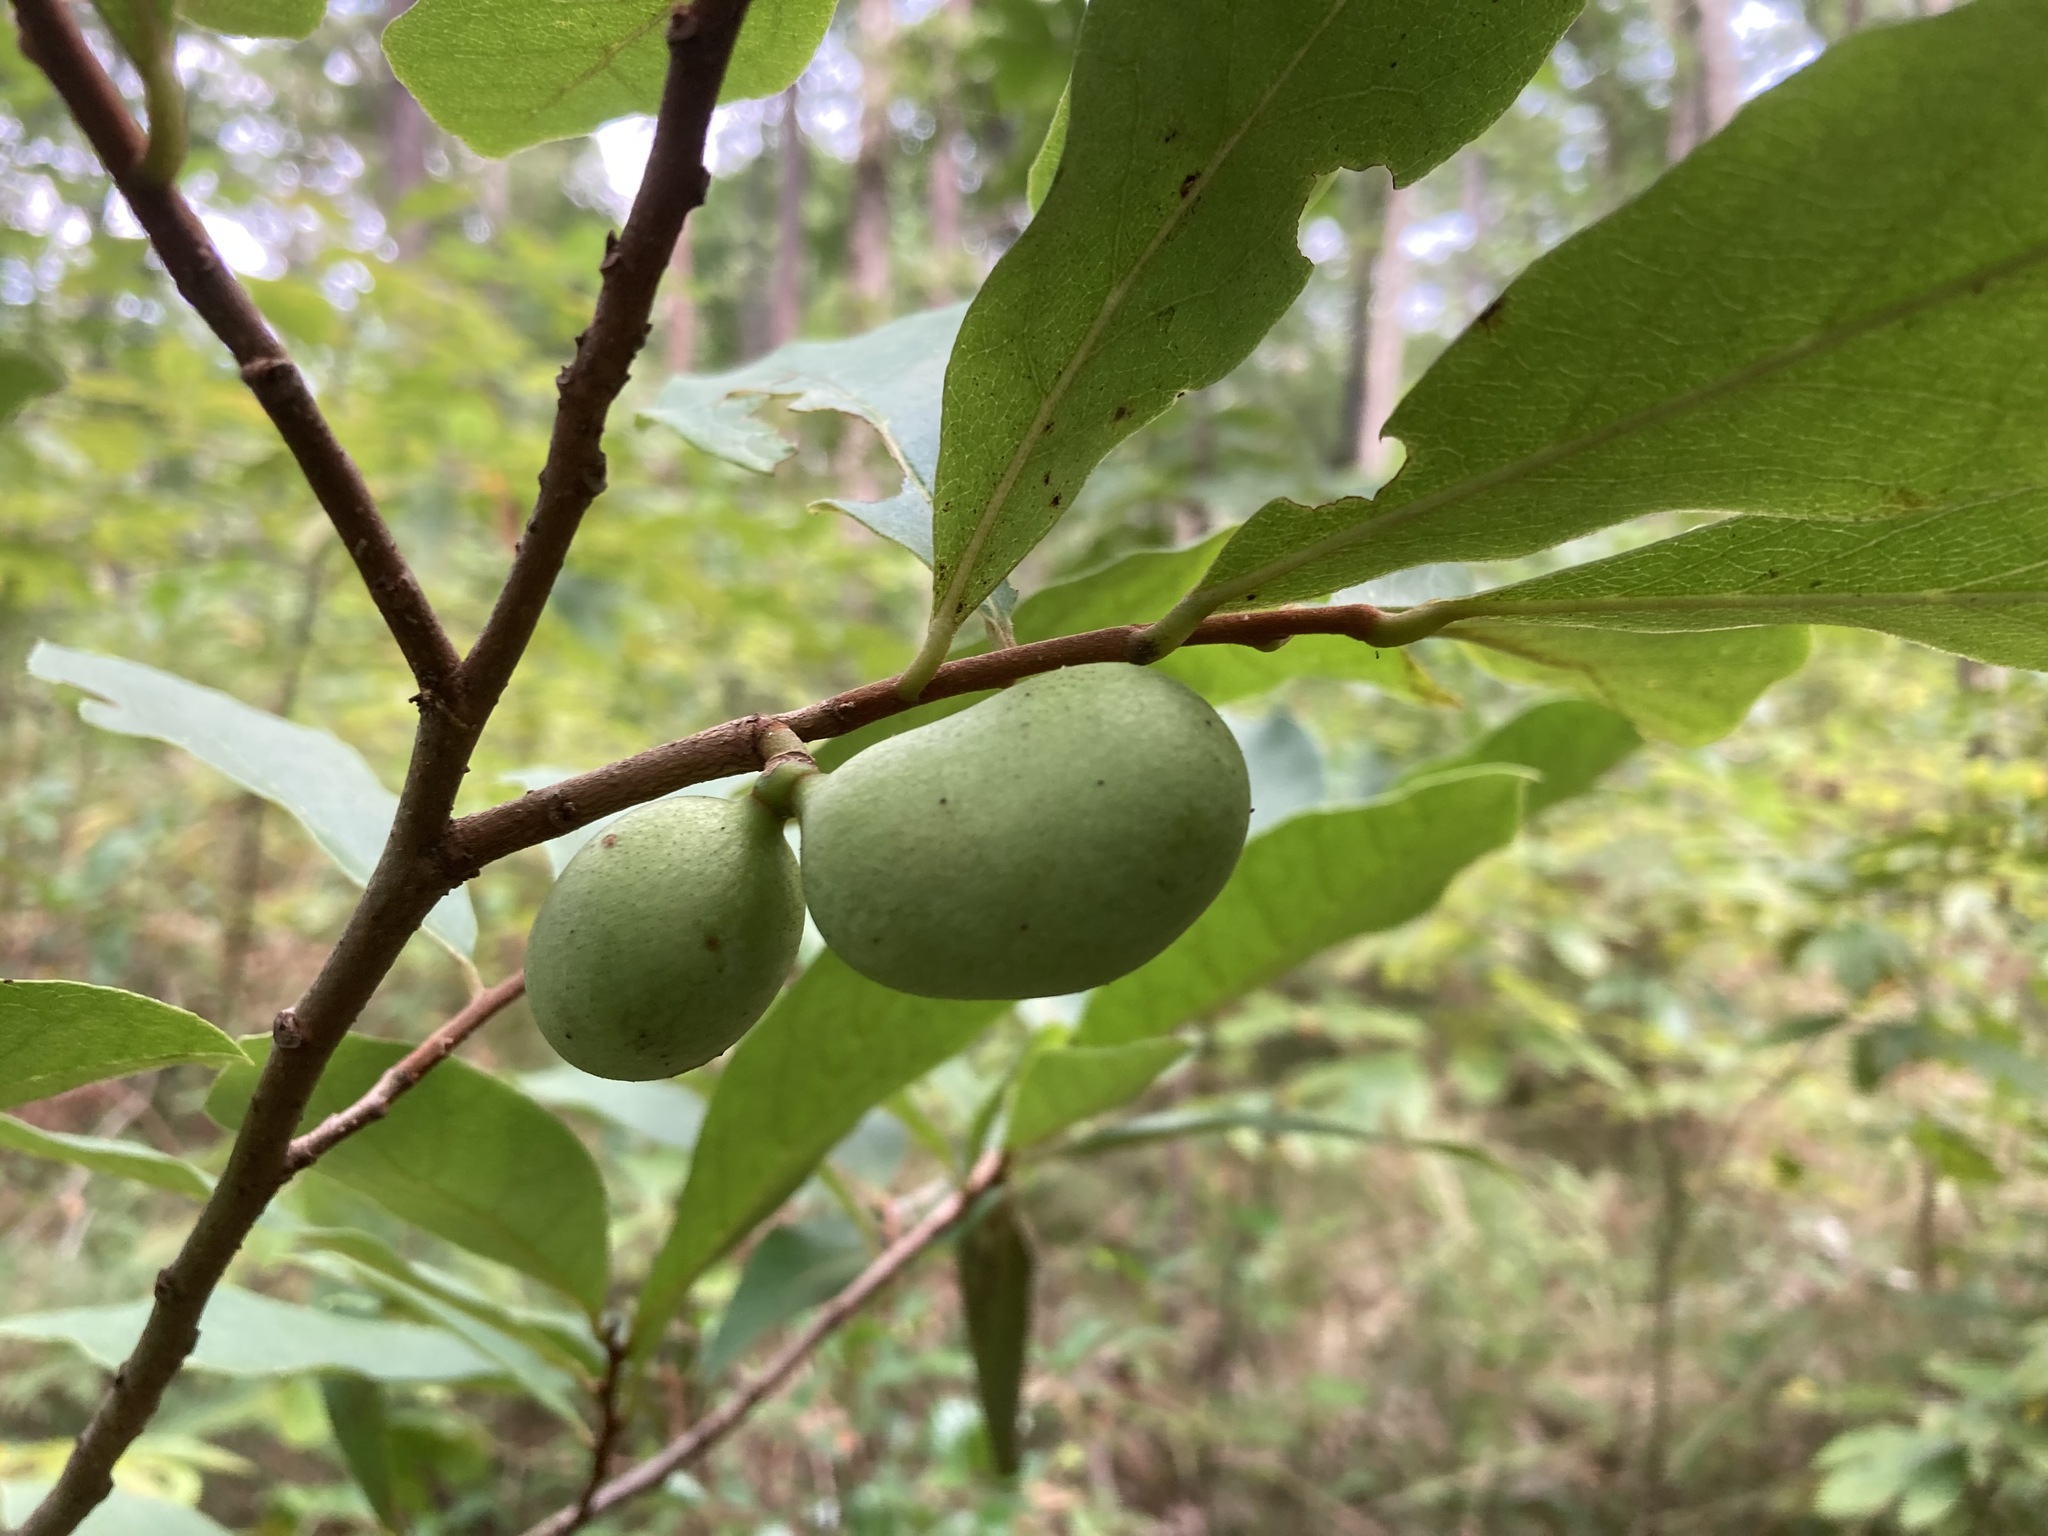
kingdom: Plantae
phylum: Tracheophyta
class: Magnoliopsida
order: Magnoliales
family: Annonaceae
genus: Asimina
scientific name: Asimina parviflora
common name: Dwarf pawpaw
